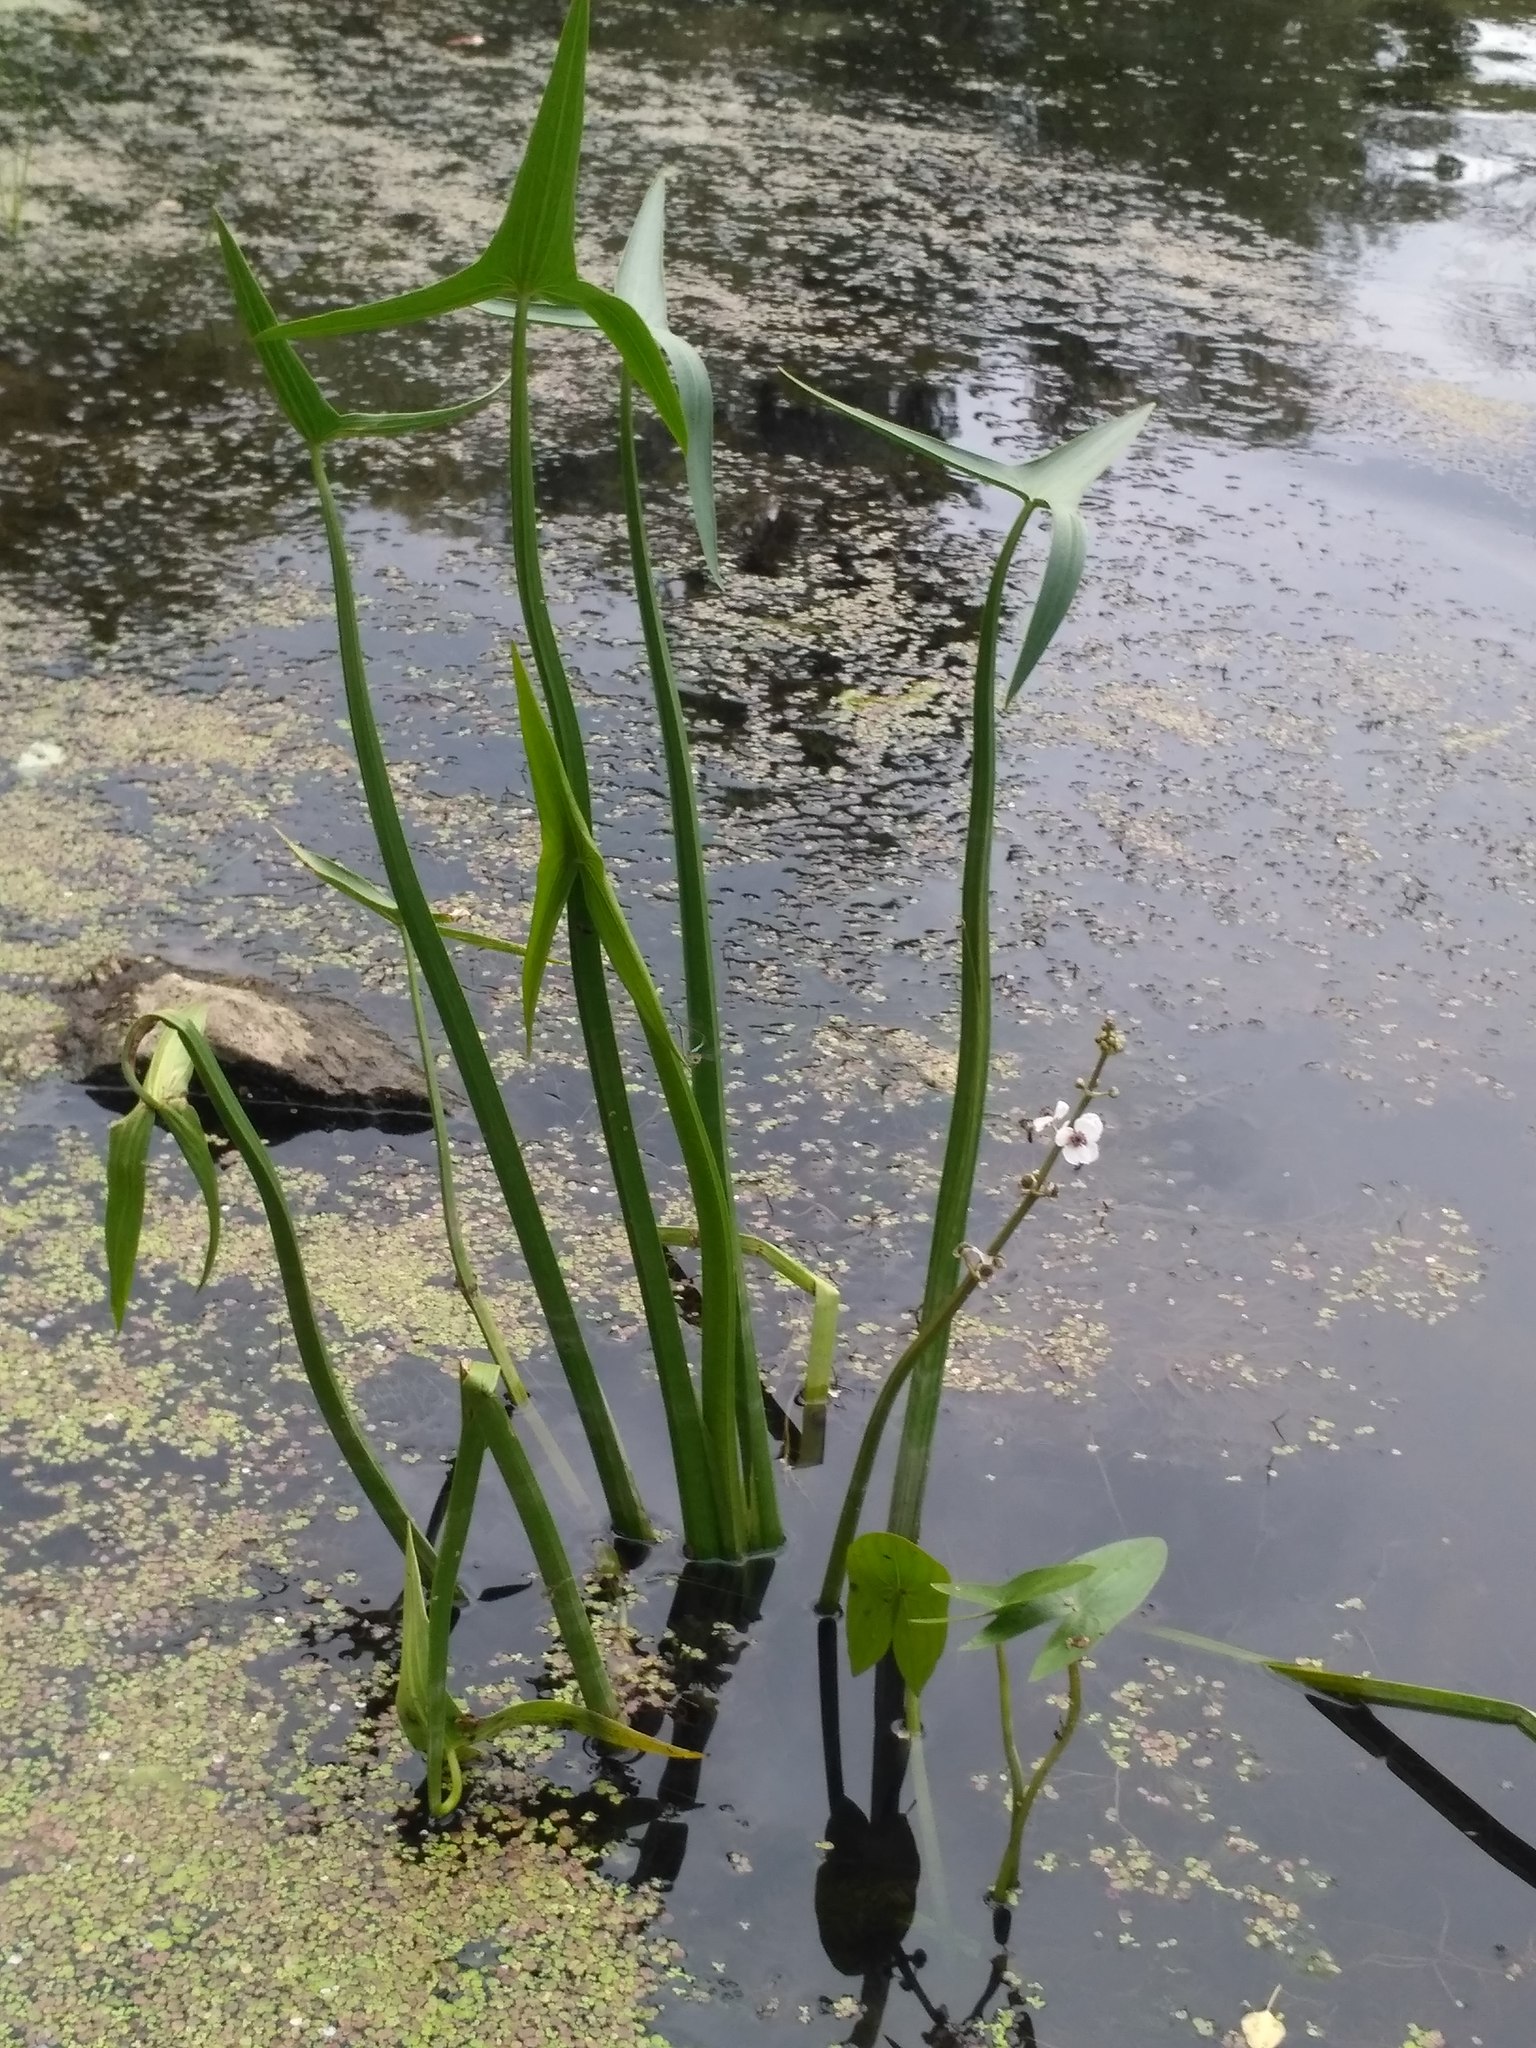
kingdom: Plantae
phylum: Tracheophyta
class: Liliopsida
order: Alismatales
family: Alismataceae
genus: Sagittaria
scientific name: Sagittaria sagittifolia
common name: Arrowhead
